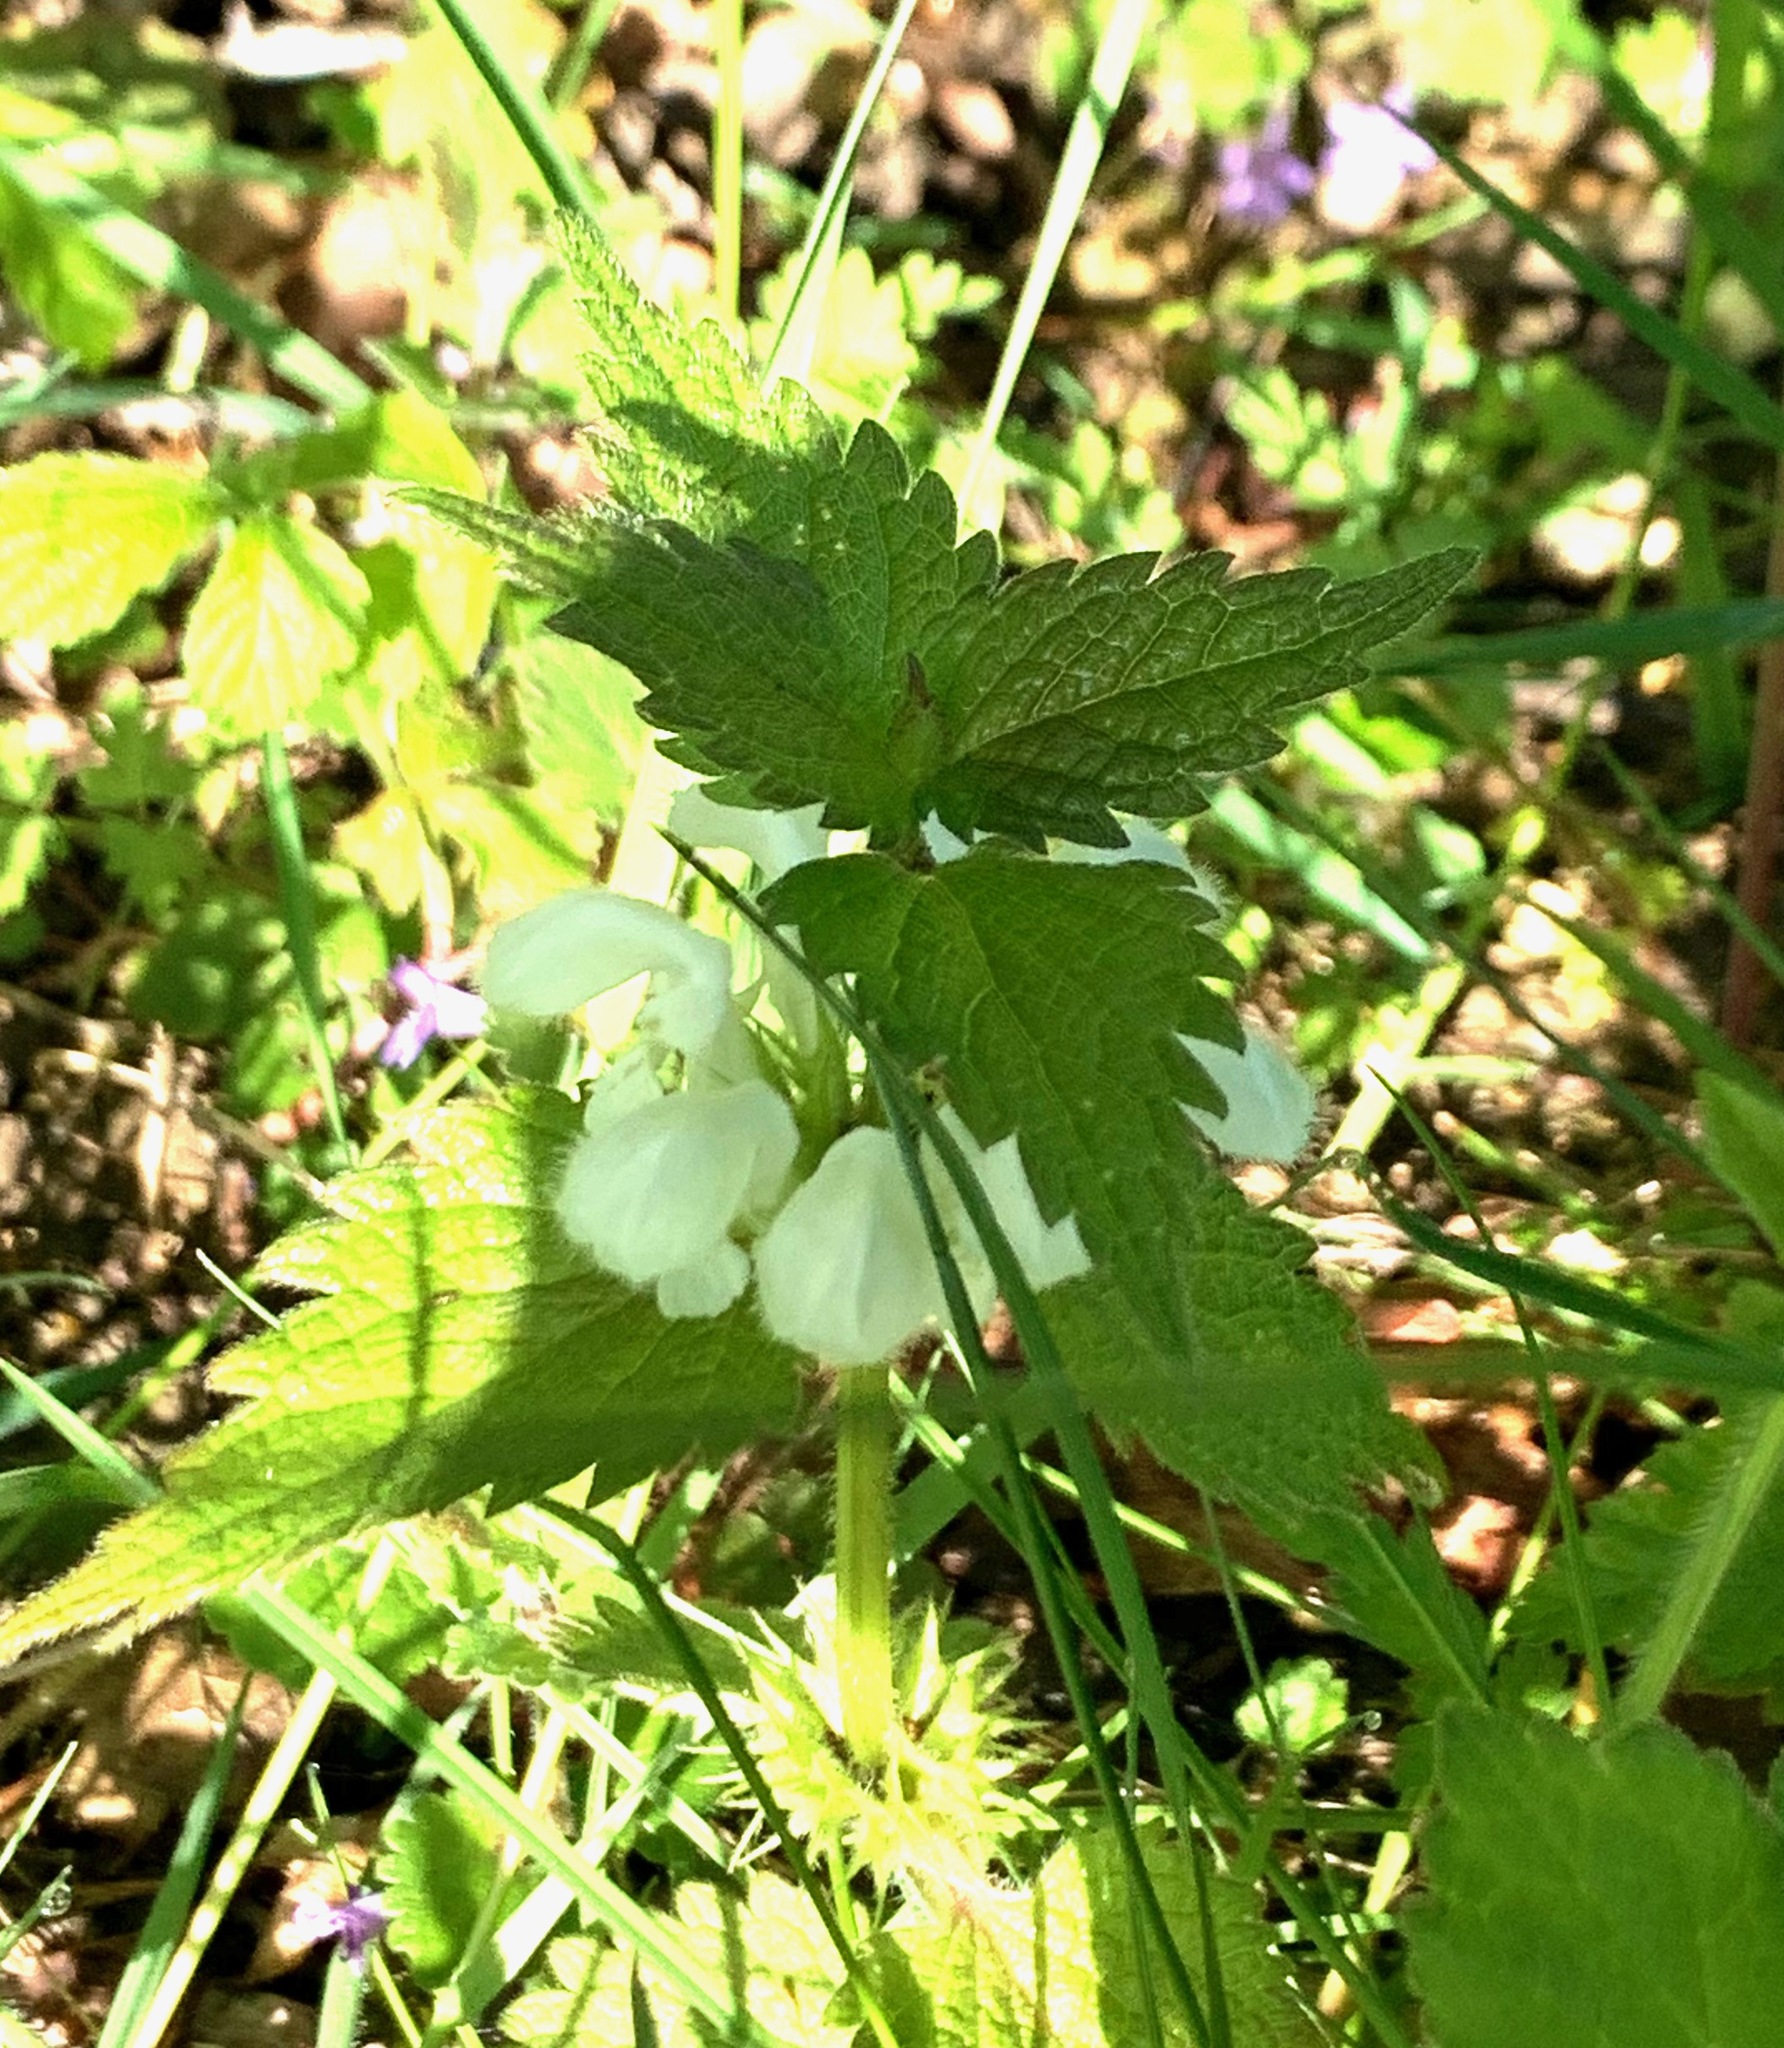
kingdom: Plantae
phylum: Tracheophyta
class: Magnoliopsida
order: Lamiales
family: Lamiaceae
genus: Lamium
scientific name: Lamium album
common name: White dead-nettle
